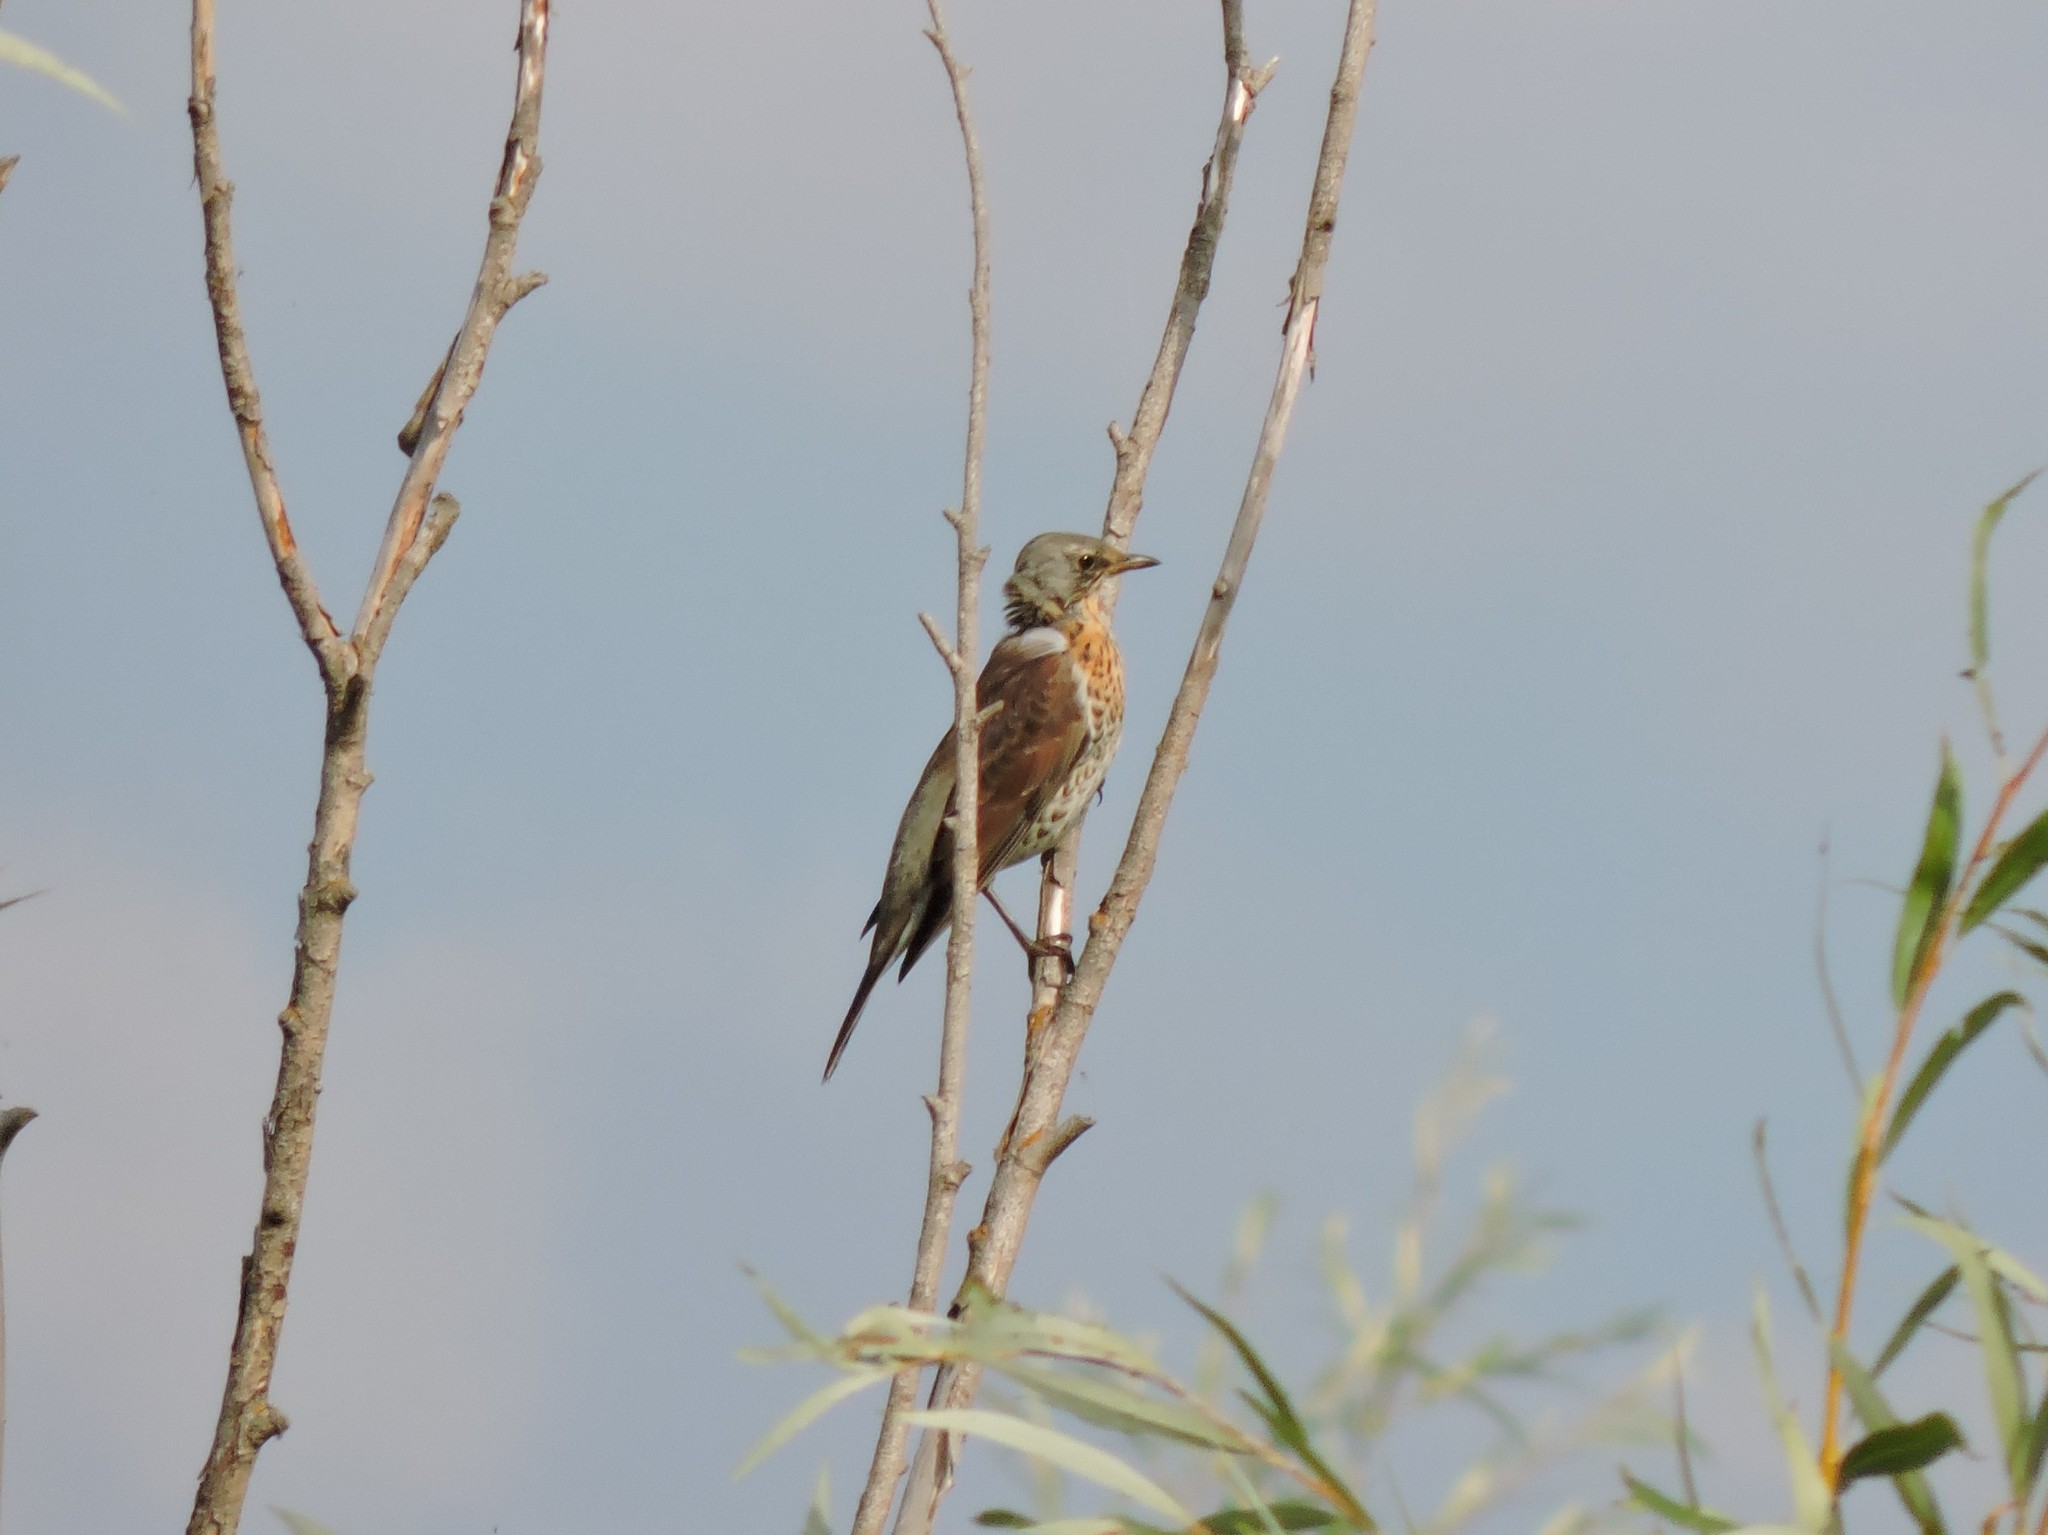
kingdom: Animalia
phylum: Chordata
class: Aves
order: Passeriformes
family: Turdidae
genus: Turdus
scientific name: Turdus pilaris
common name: Fieldfare
